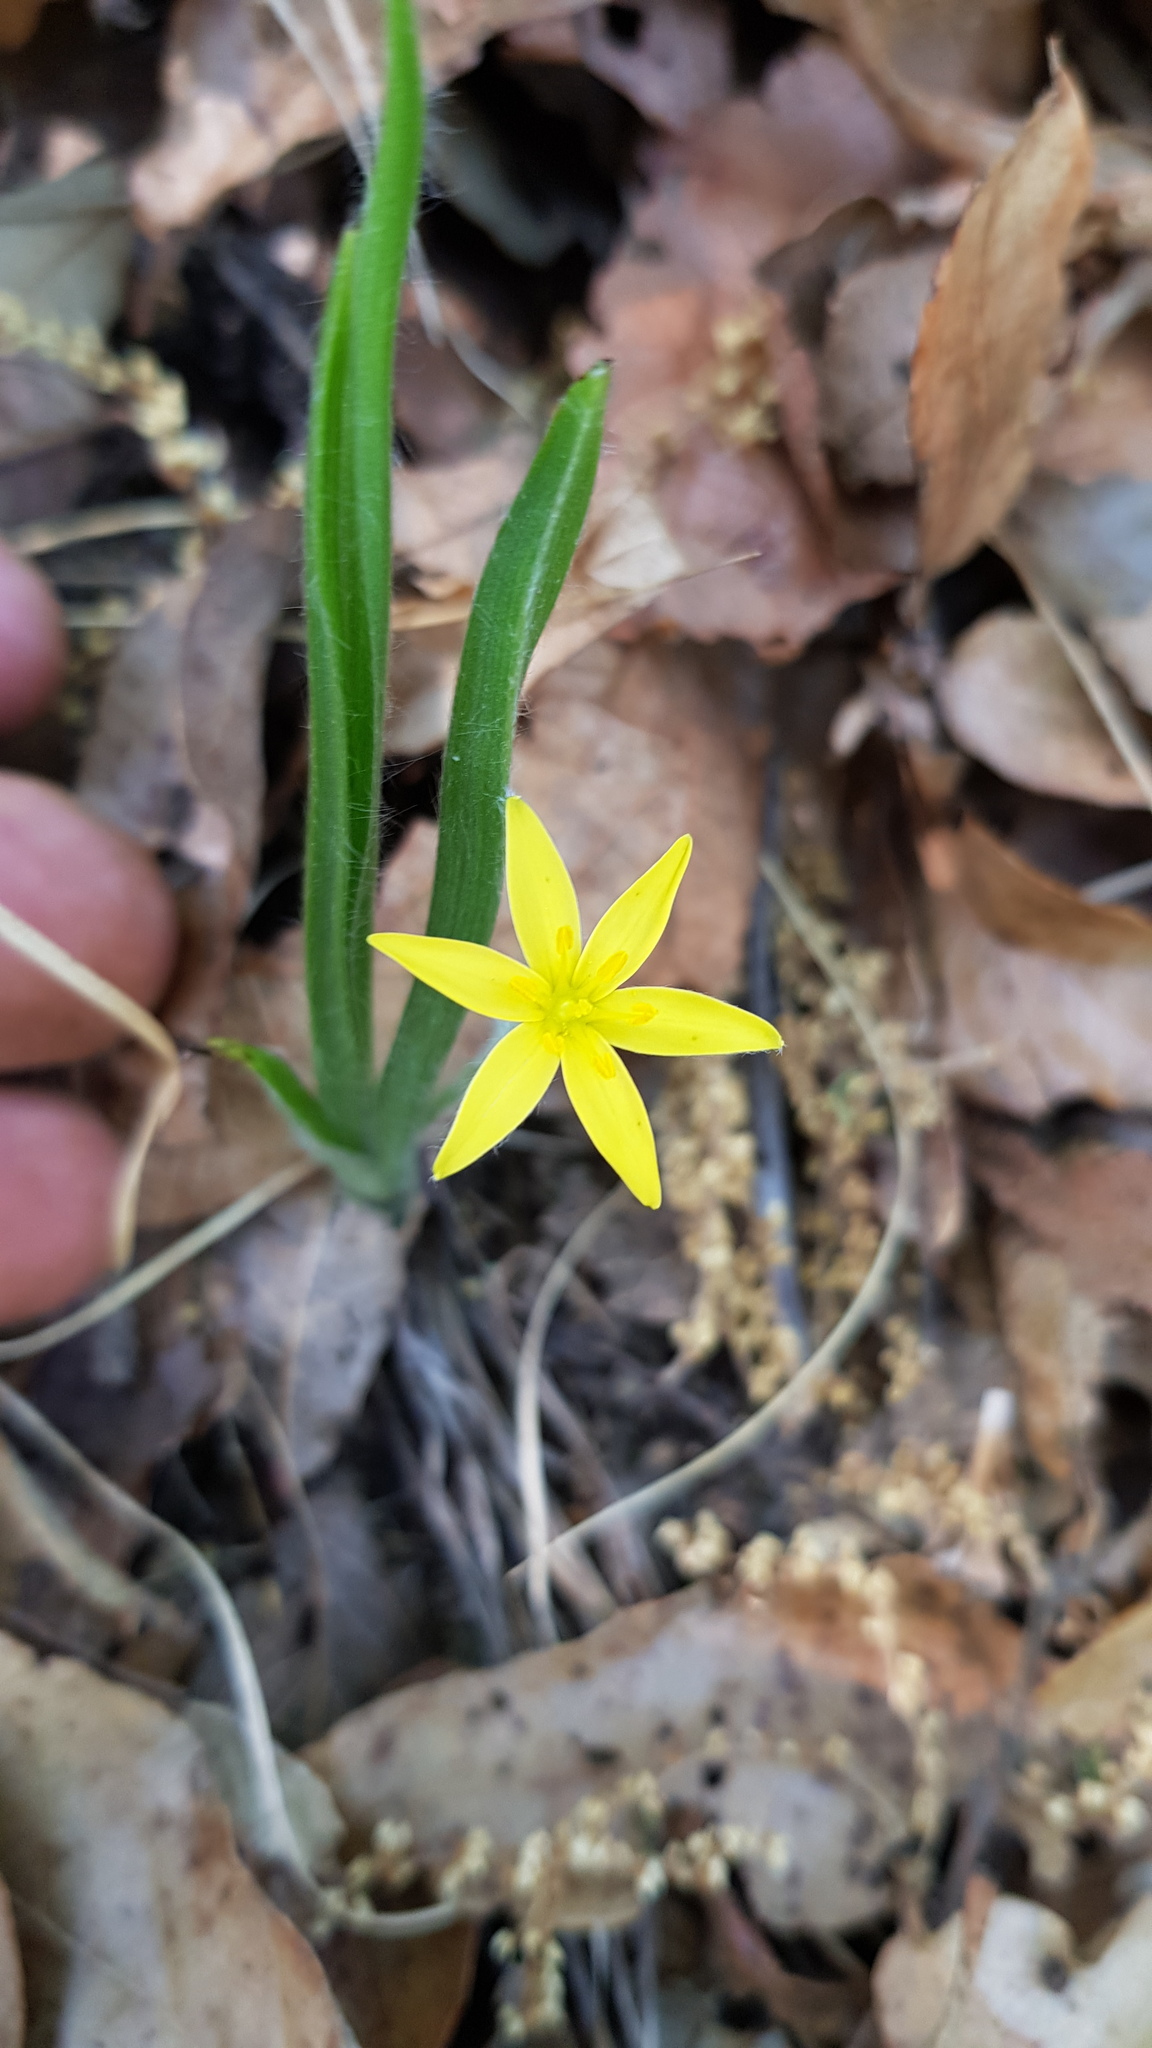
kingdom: Plantae
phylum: Tracheophyta
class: Liliopsida
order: Asparagales
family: Hypoxidaceae
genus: Hypoxis
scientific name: Hypoxis decumbens
